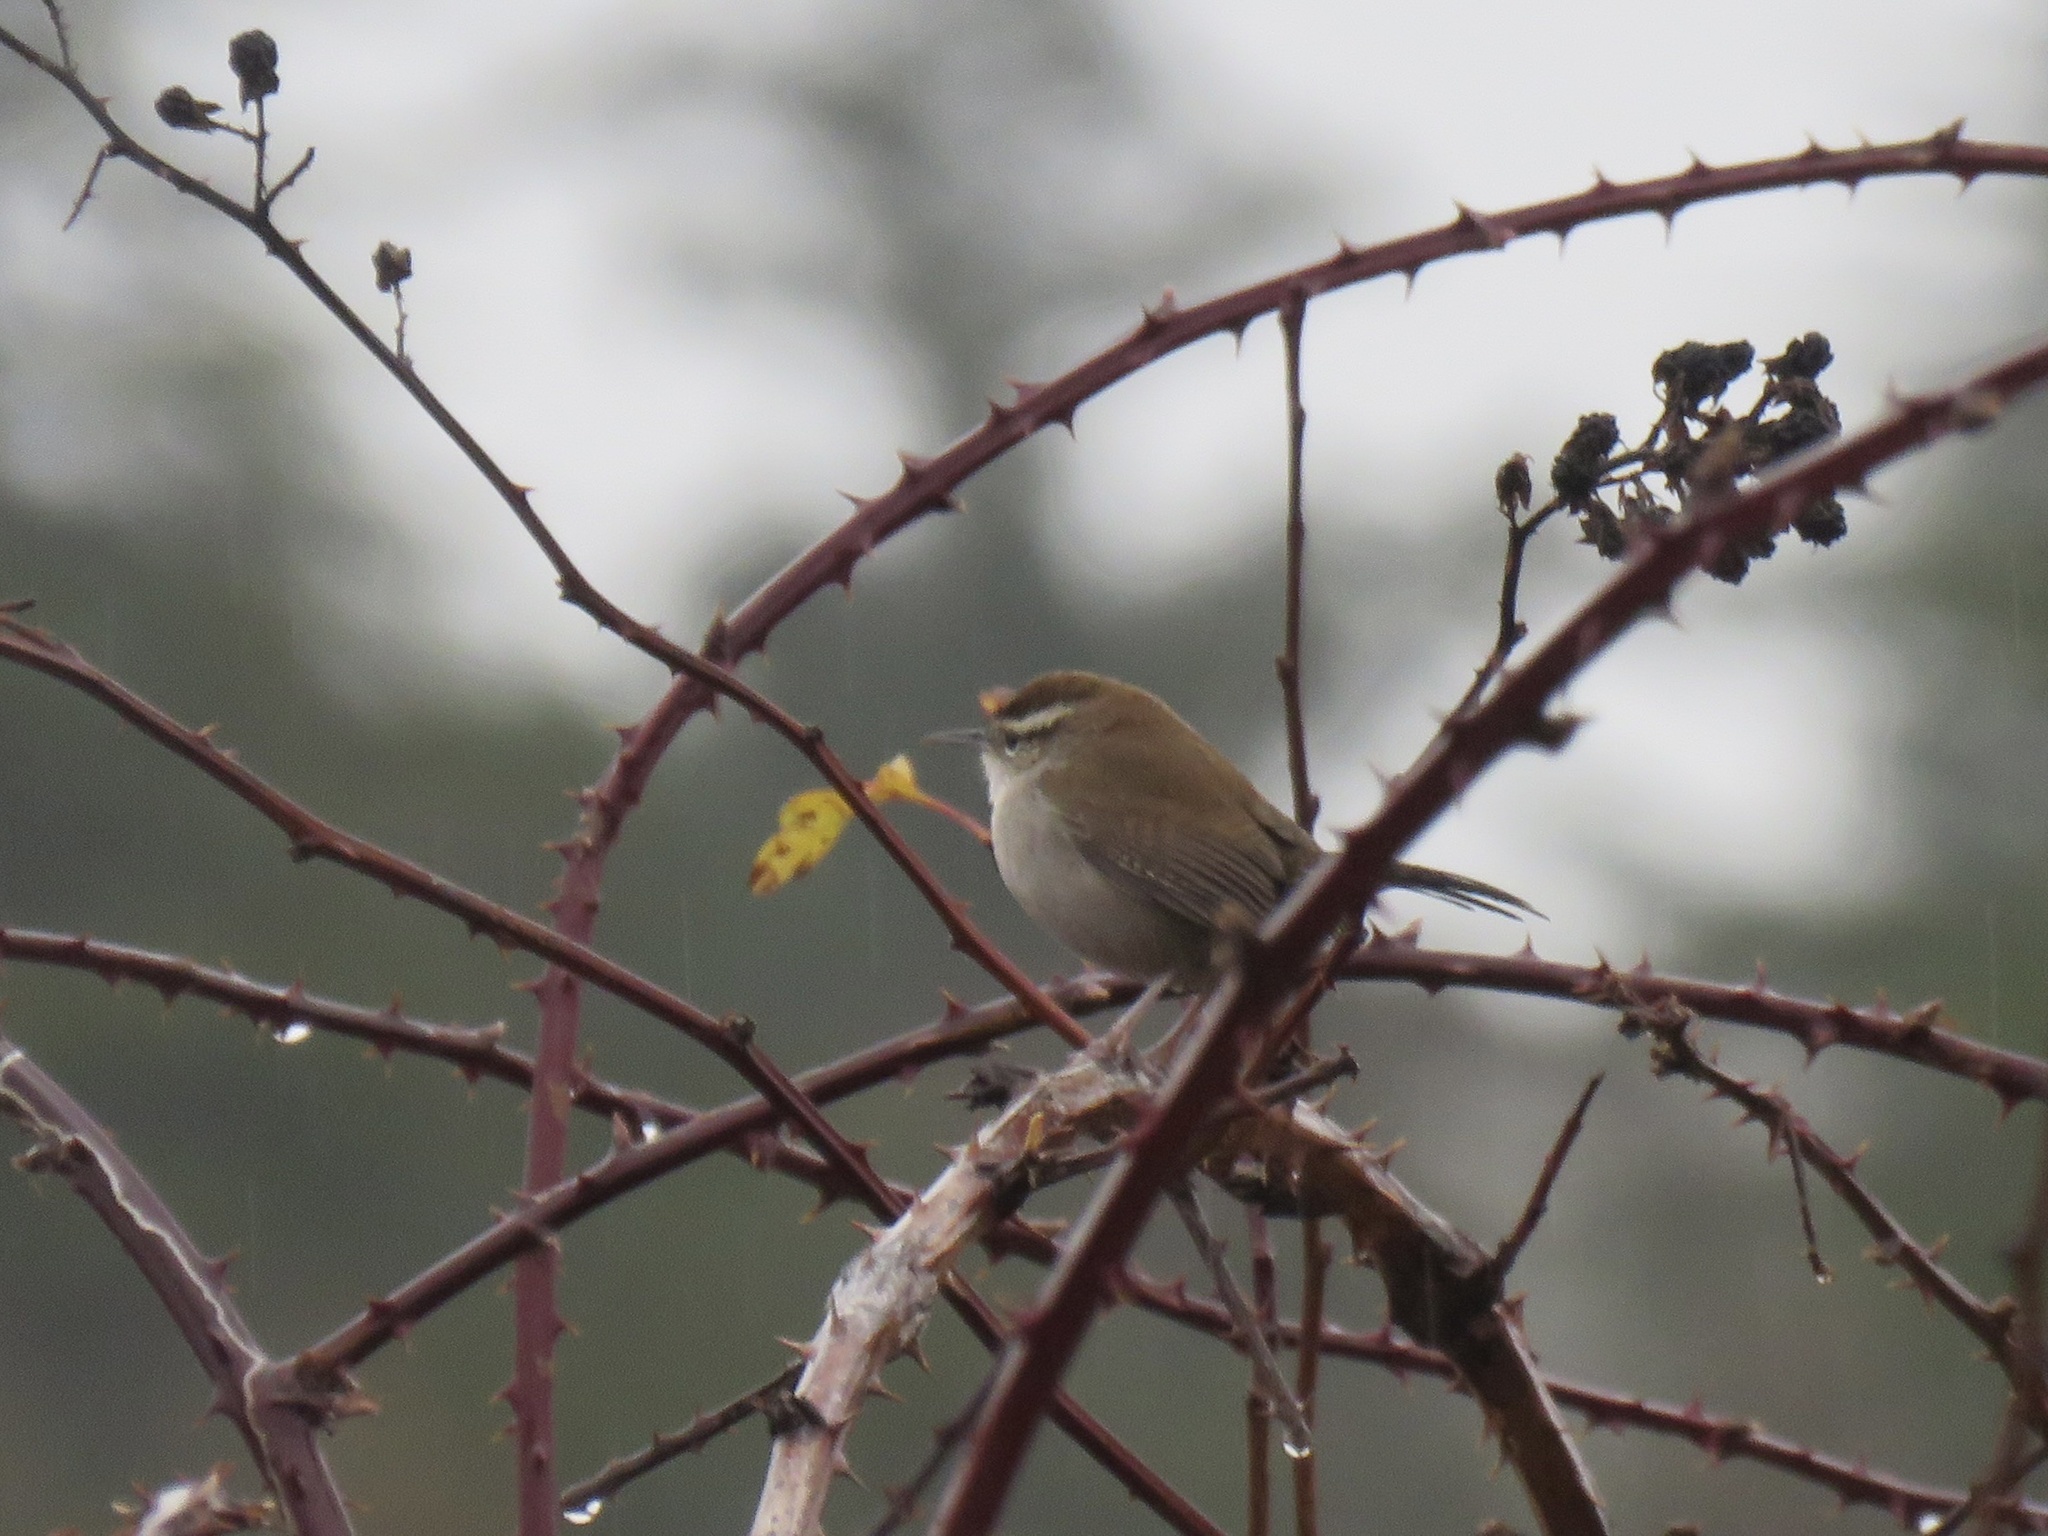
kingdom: Animalia
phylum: Chordata
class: Aves
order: Passeriformes
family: Troglodytidae
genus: Thryomanes
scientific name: Thryomanes bewickii
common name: Bewick's wren
